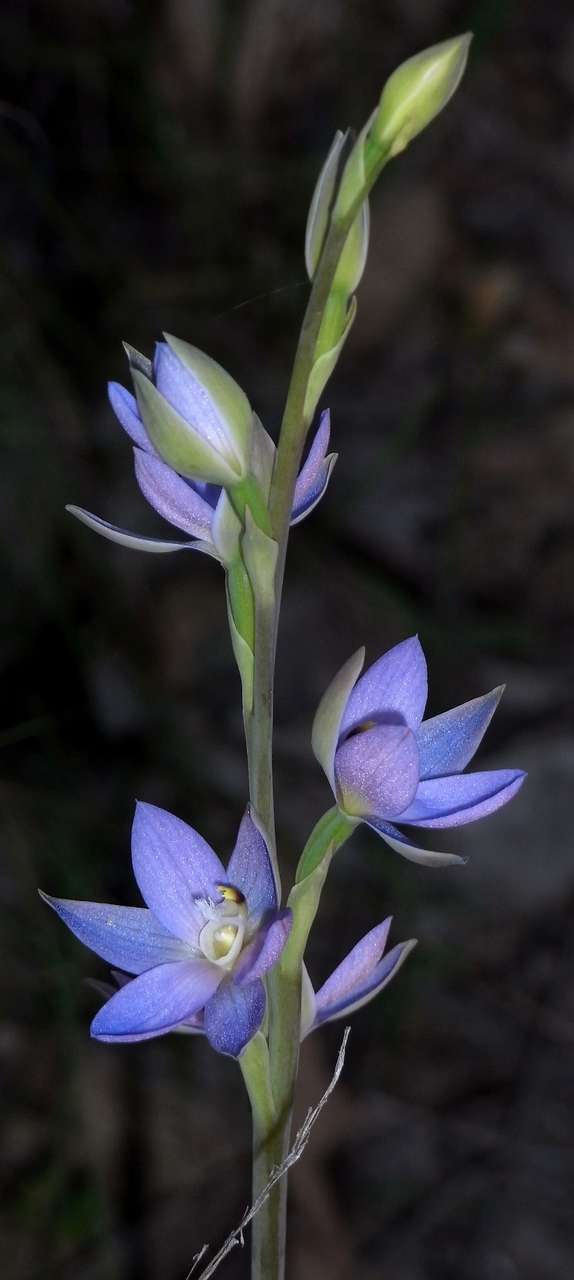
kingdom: Plantae
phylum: Tracheophyta
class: Liliopsida
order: Asparagales
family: Orchidaceae
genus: Thelymitra
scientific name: Thelymitra aristata
